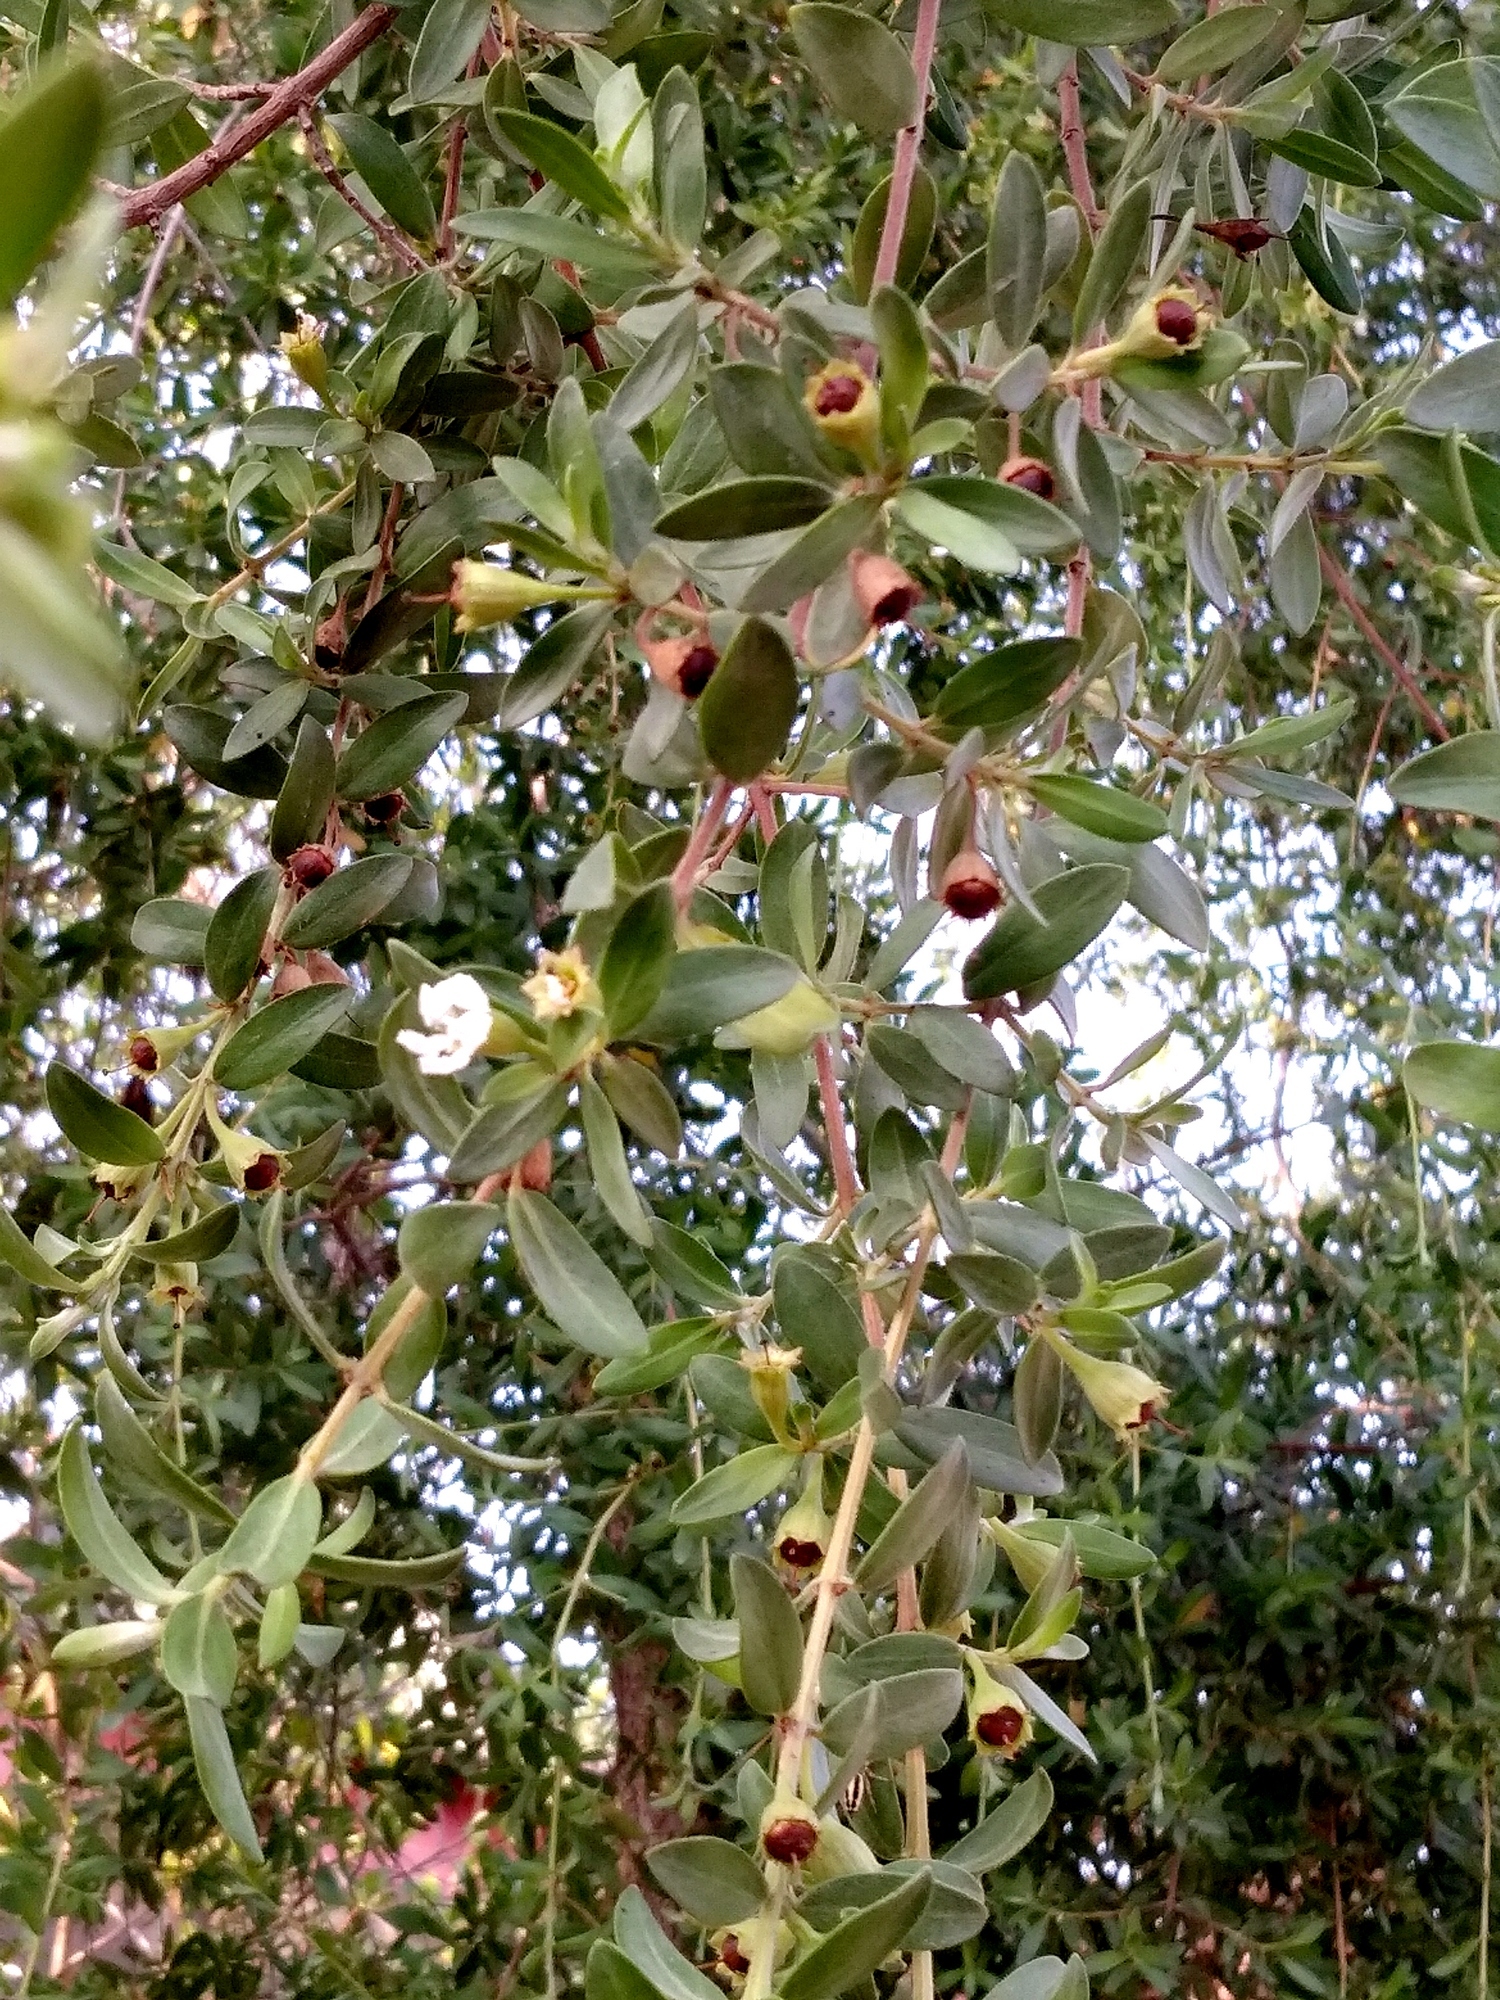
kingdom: Plantae
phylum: Tracheophyta
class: Magnoliopsida
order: Myrtales
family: Lythraceae
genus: Pemphis
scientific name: Pemphis acidula
